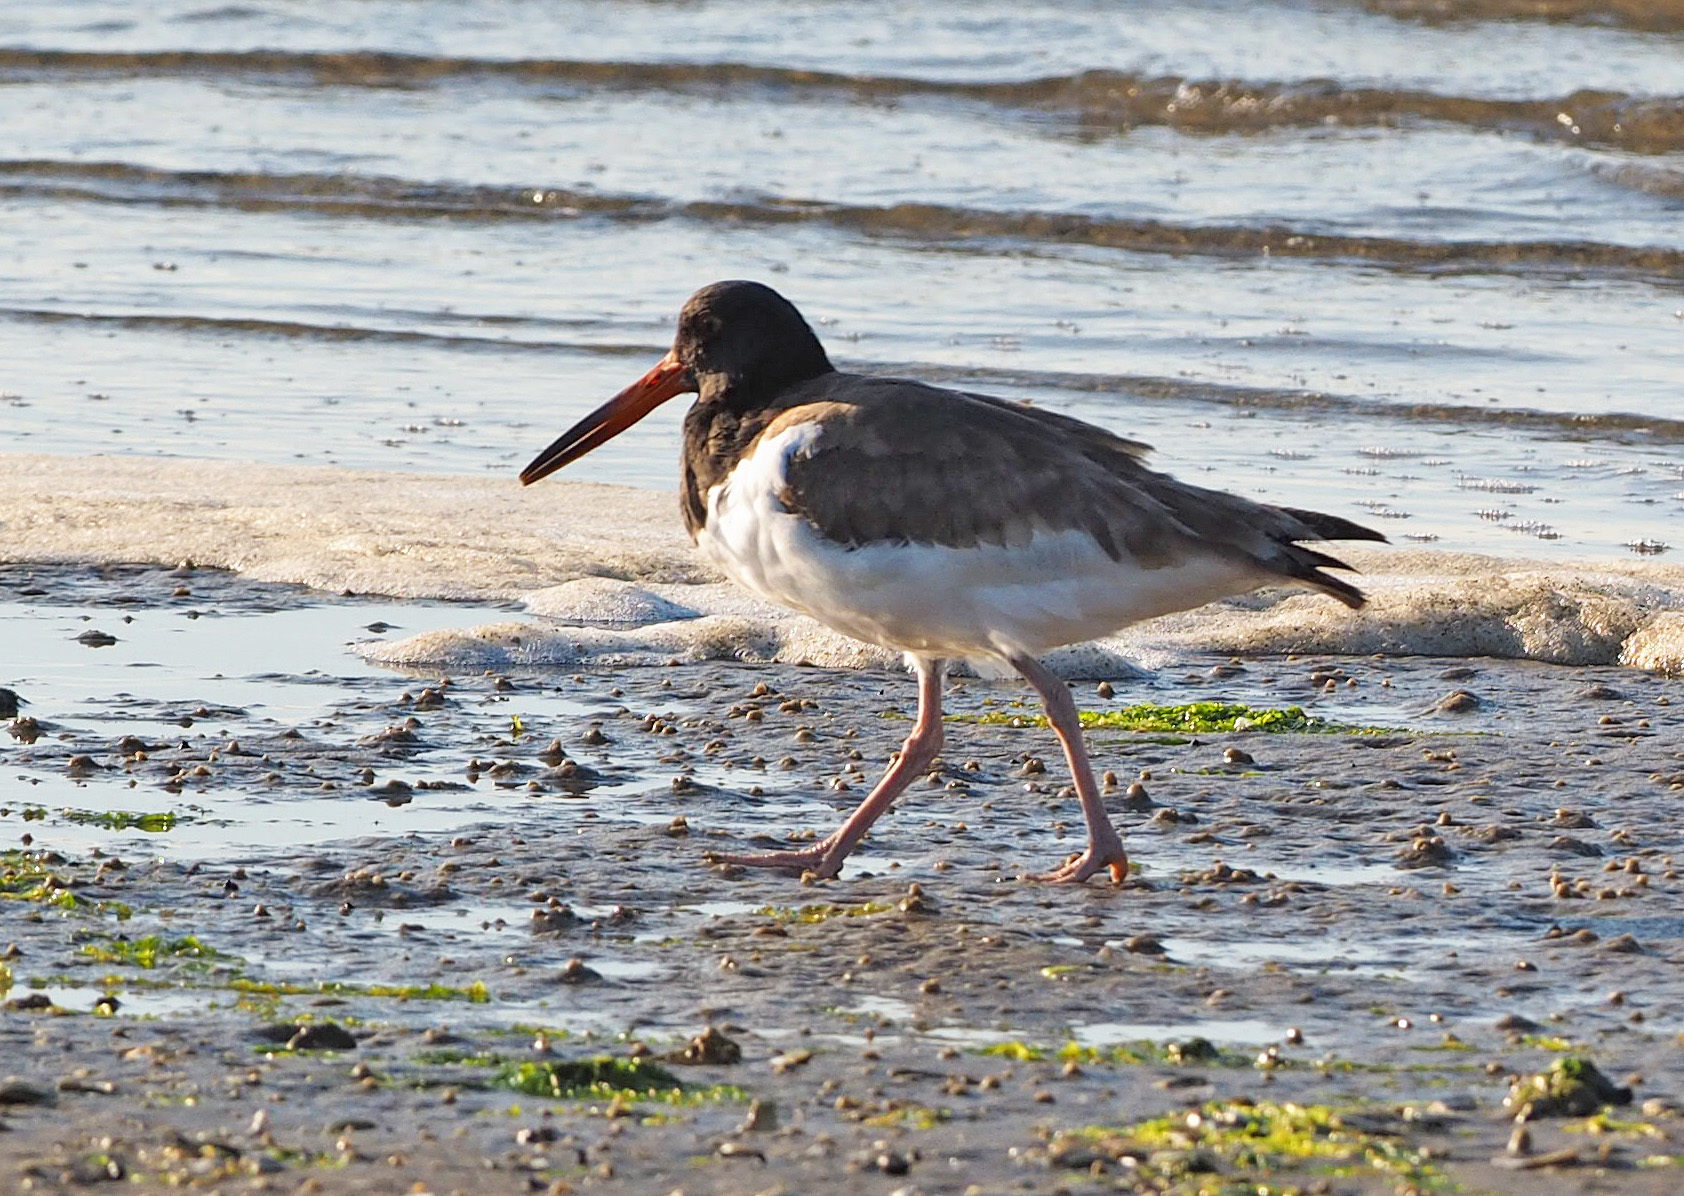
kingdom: Animalia
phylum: Chordata
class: Aves
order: Charadriiformes
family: Haematopodidae
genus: Haematopus
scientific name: Haematopus palliatus
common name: American oystercatcher
